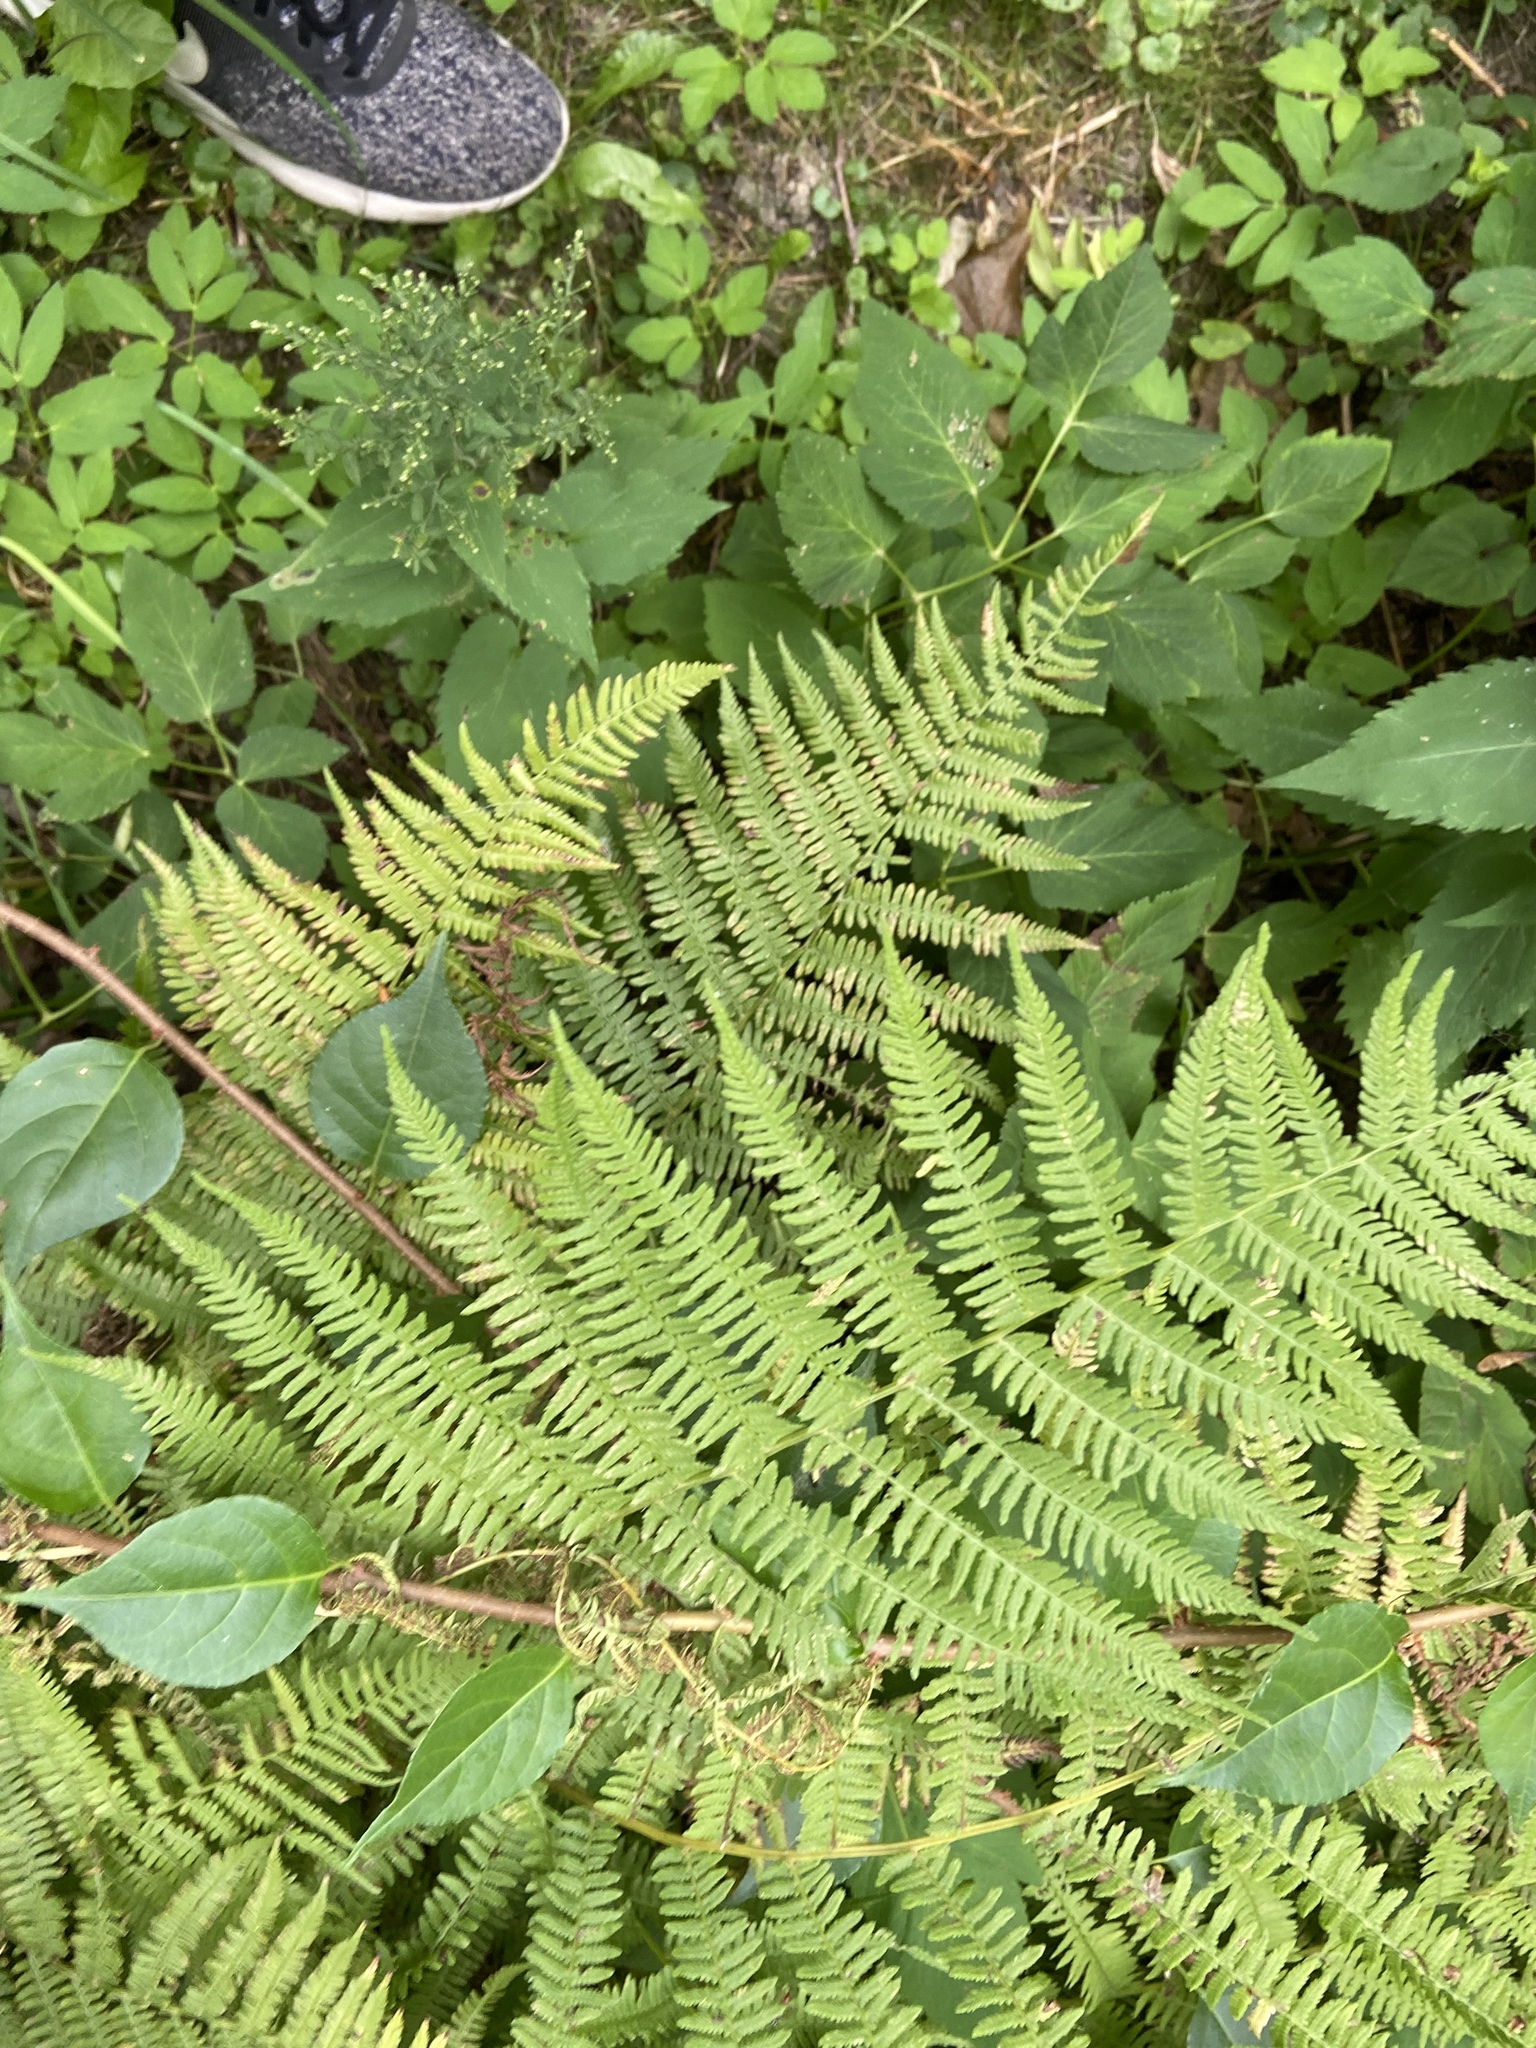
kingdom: Plantae
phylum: Tracheophyta
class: Polypodiopsida
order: Polypodiales
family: Athyriaceae
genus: Athyrium
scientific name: Athyrium angustum
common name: Northern lady fern
